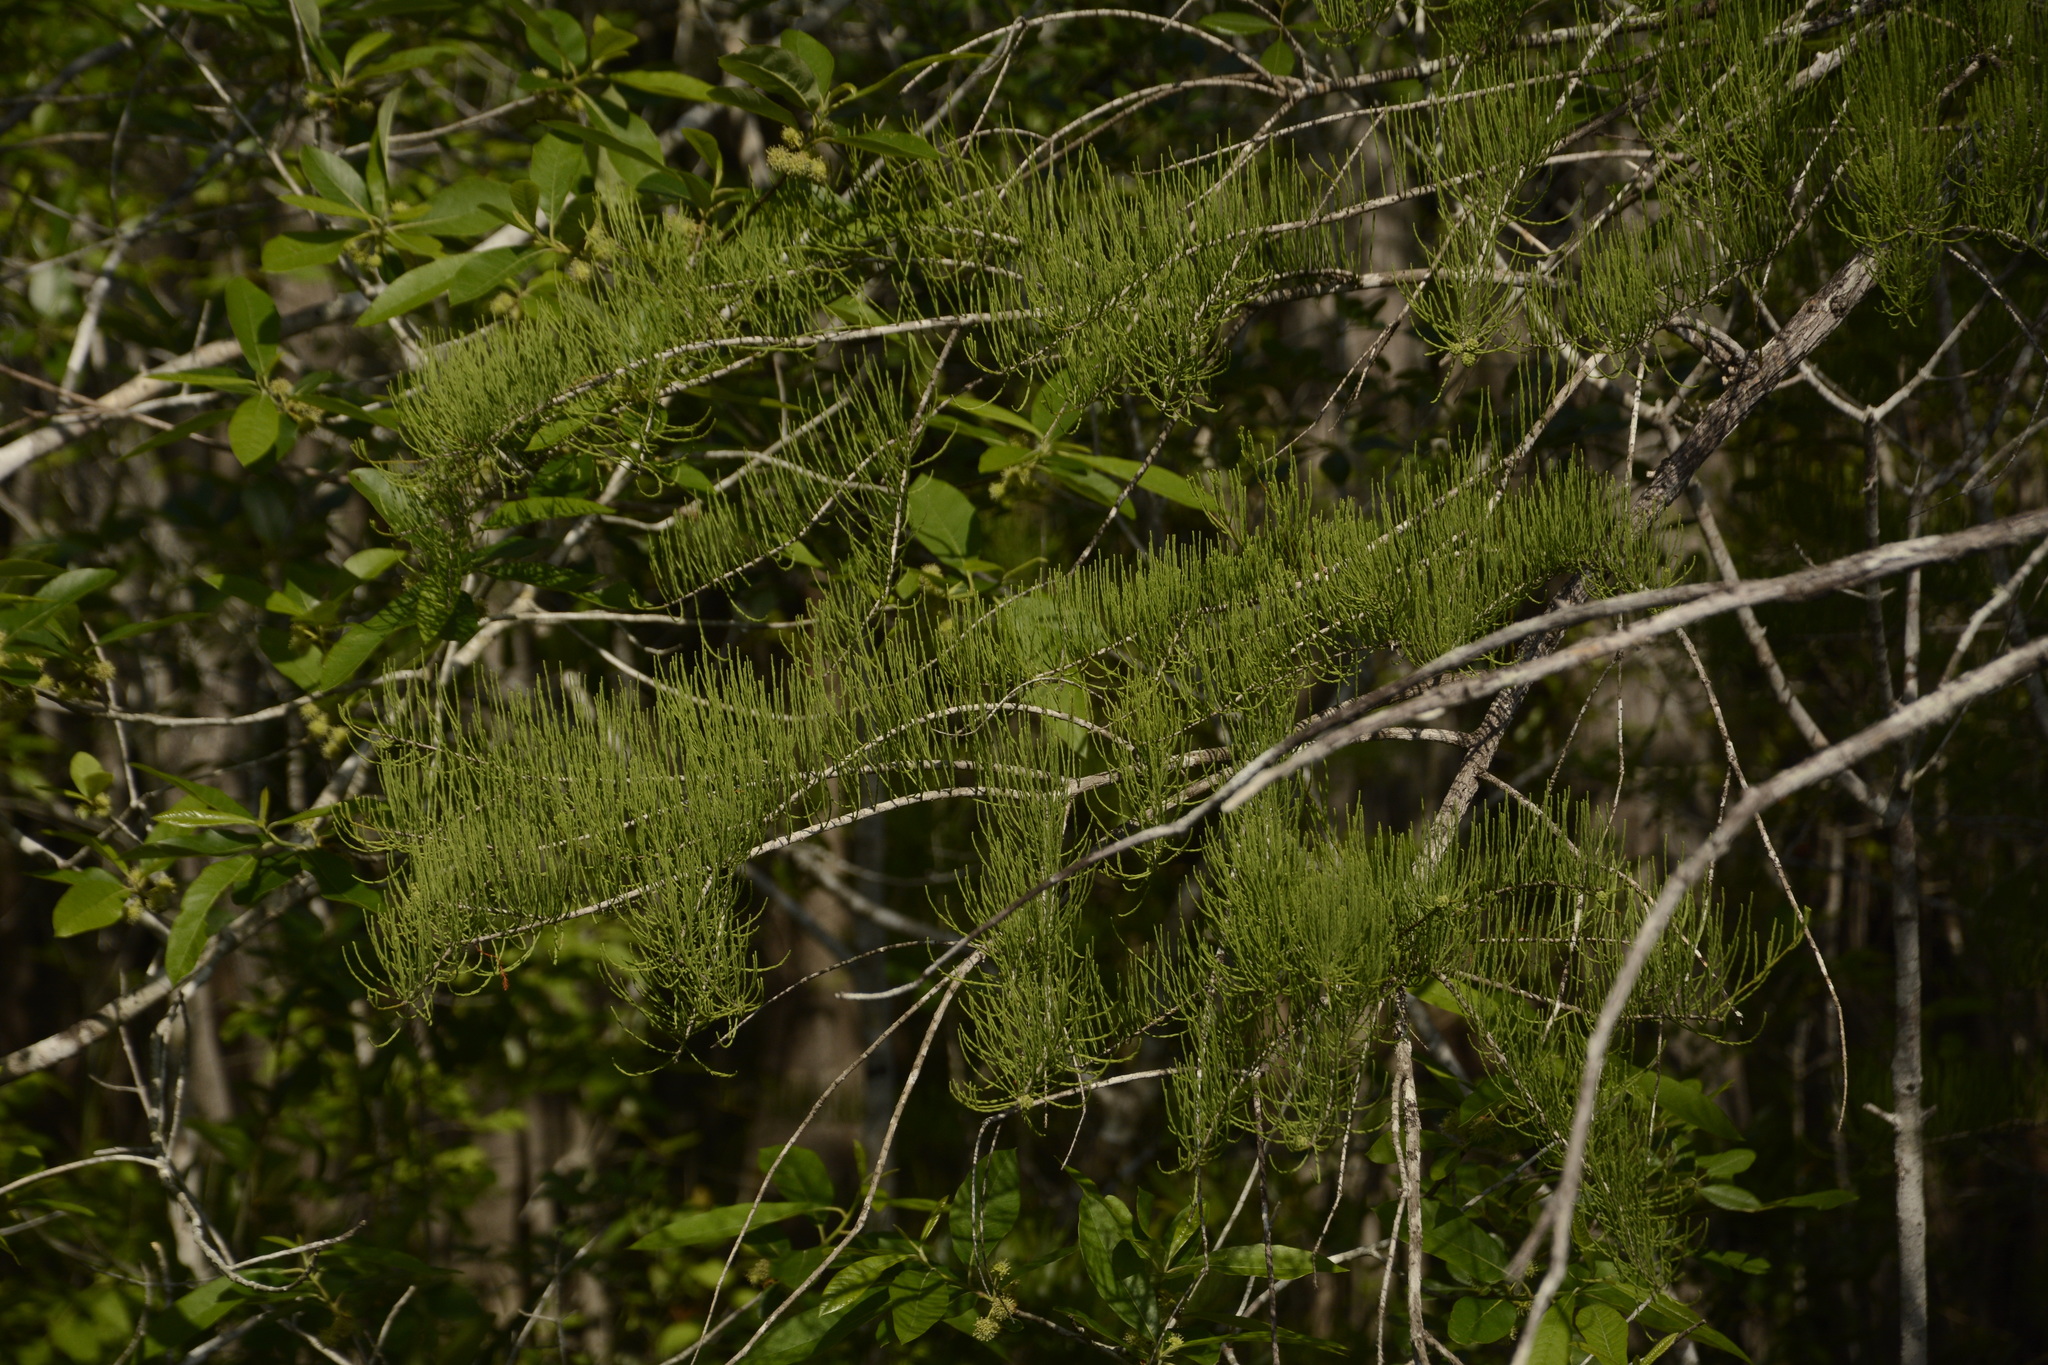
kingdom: Plantae
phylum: Tracheophyta
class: Pinopsida
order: Pinales
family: Cupressaceae
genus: Taxodium
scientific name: Taxodium distichum
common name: Bald cypress
